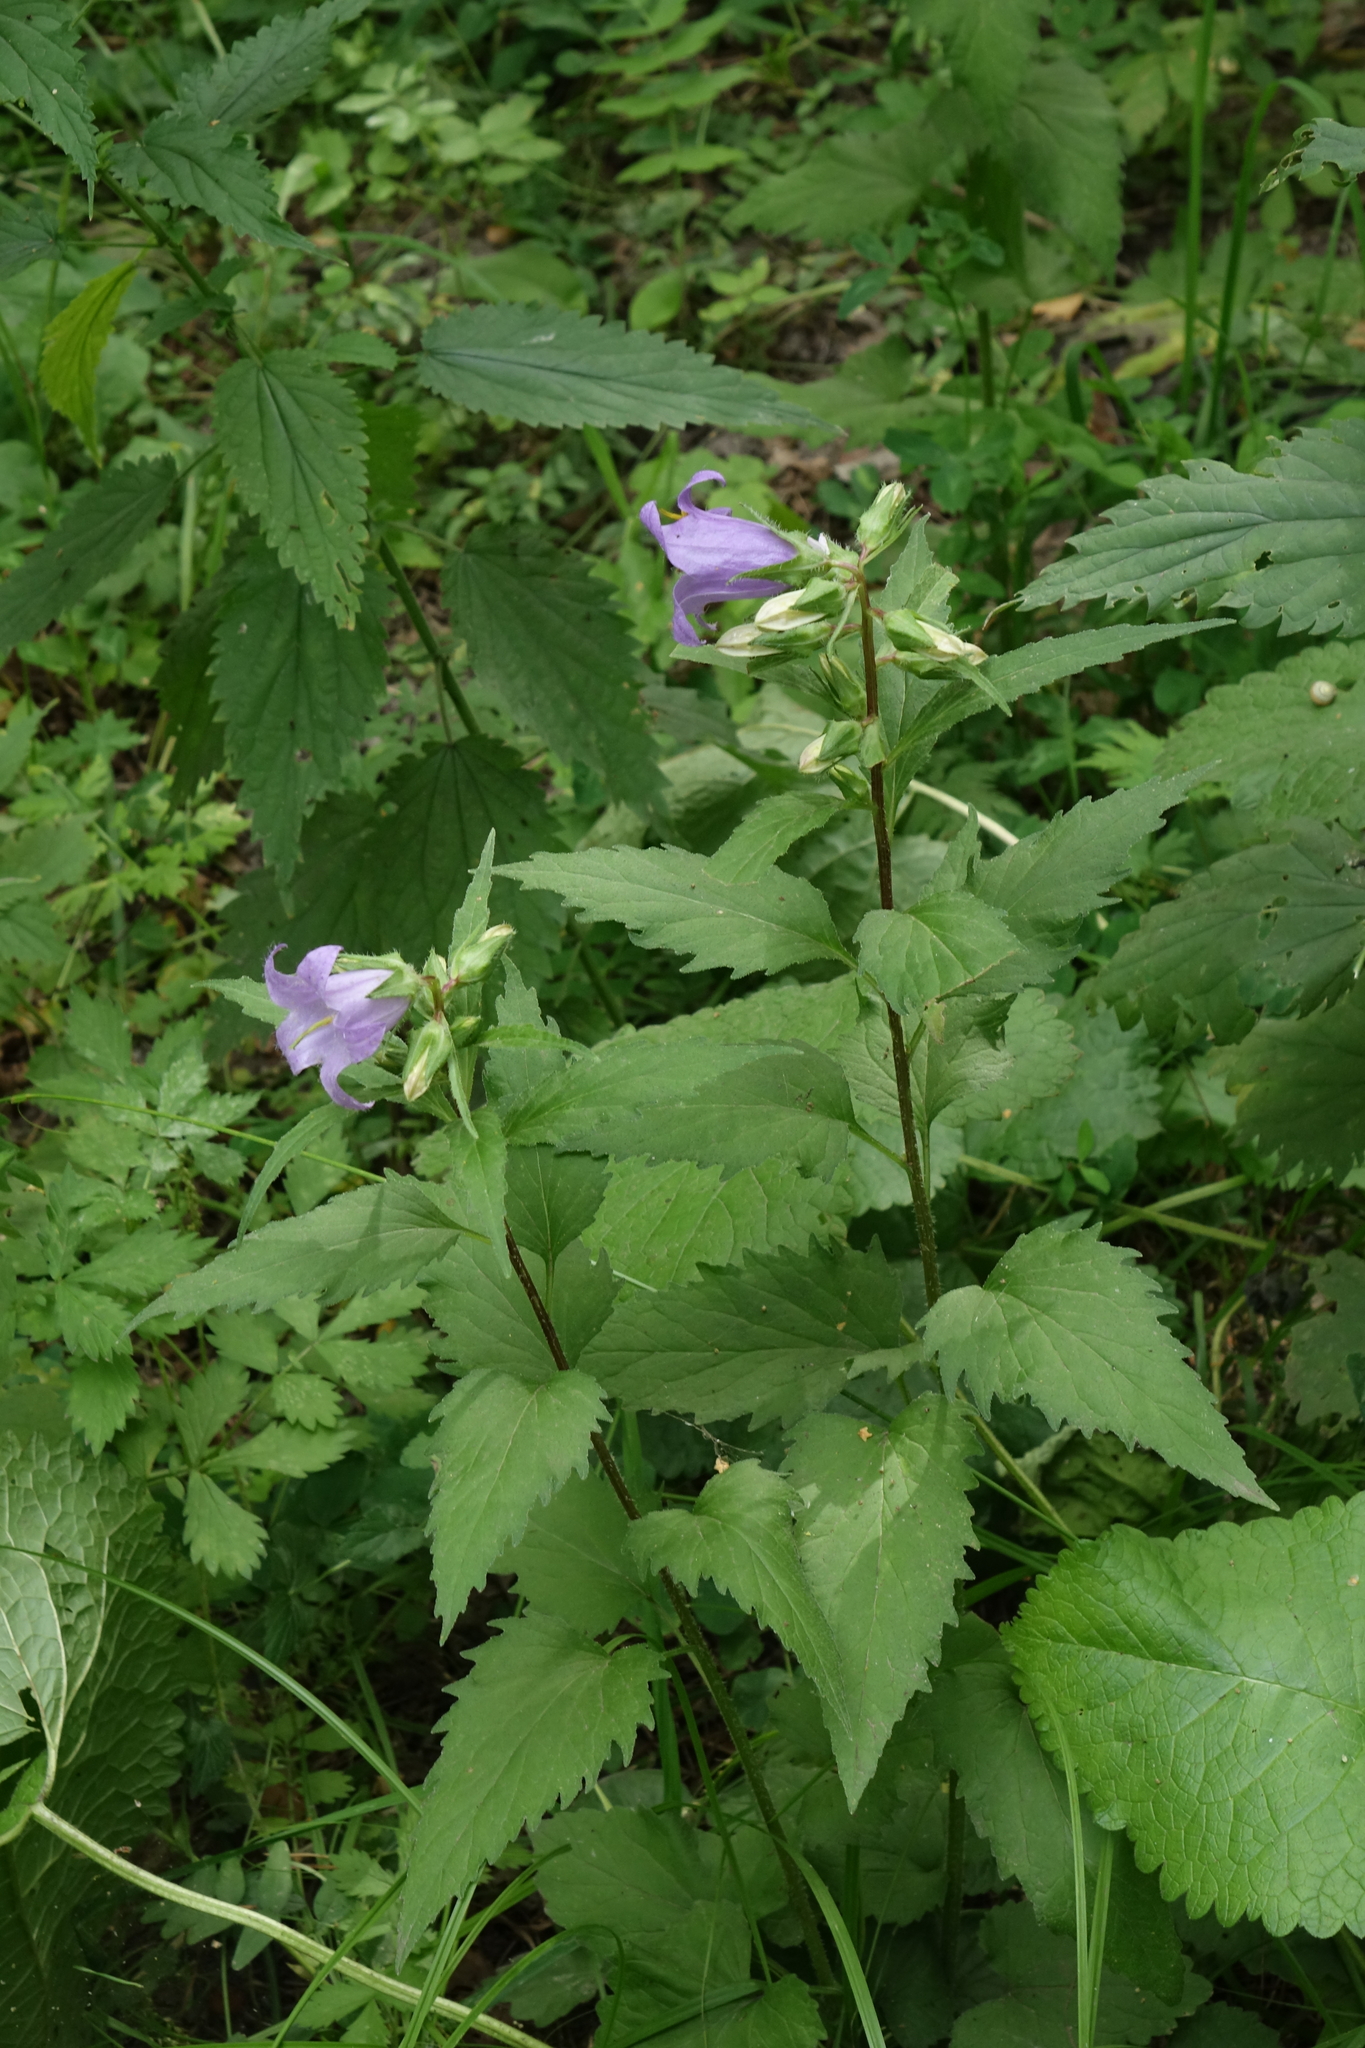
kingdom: Plantae
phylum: Tracheophyta
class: Magnoliopsida
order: Asterales
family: Campanulaceae
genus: Campanula
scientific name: Campanula trachelium
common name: Nettle-leaved bellflower
